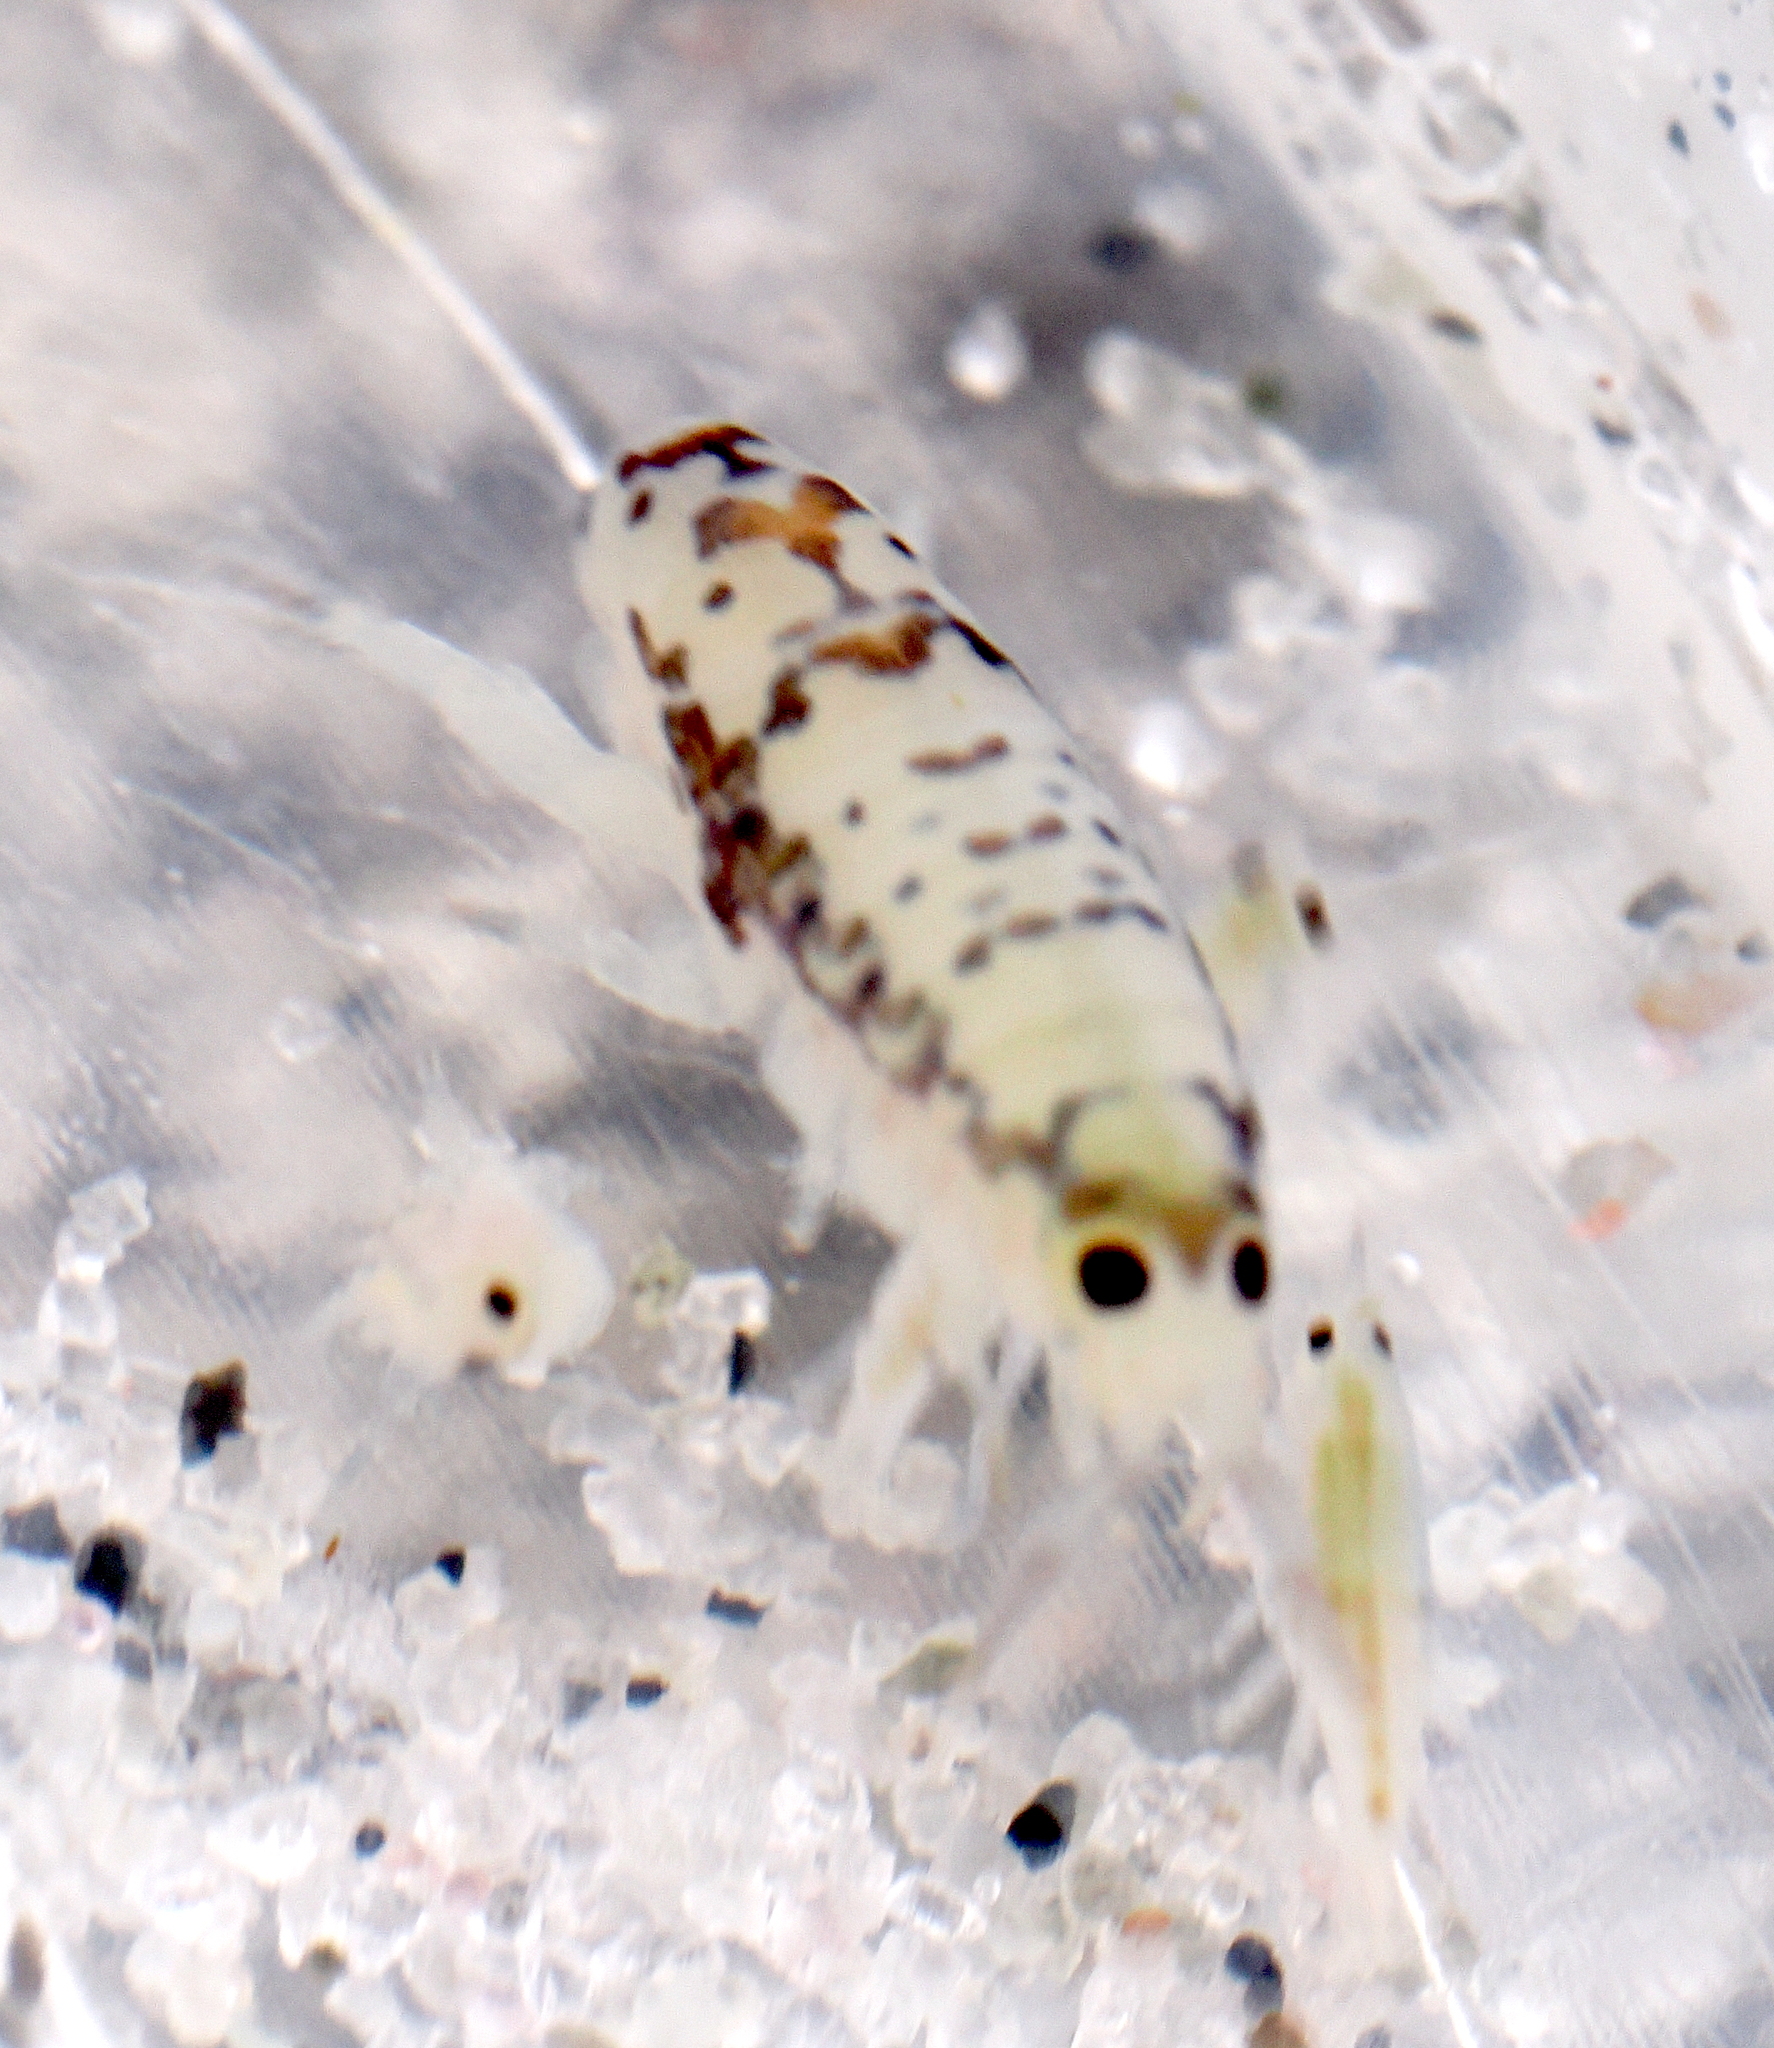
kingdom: Animalia
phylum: Arthropoda
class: Malacostraca
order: Amphipoda
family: Talitridae
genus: Megalorchestia
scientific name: Megalorchestia benedicti
